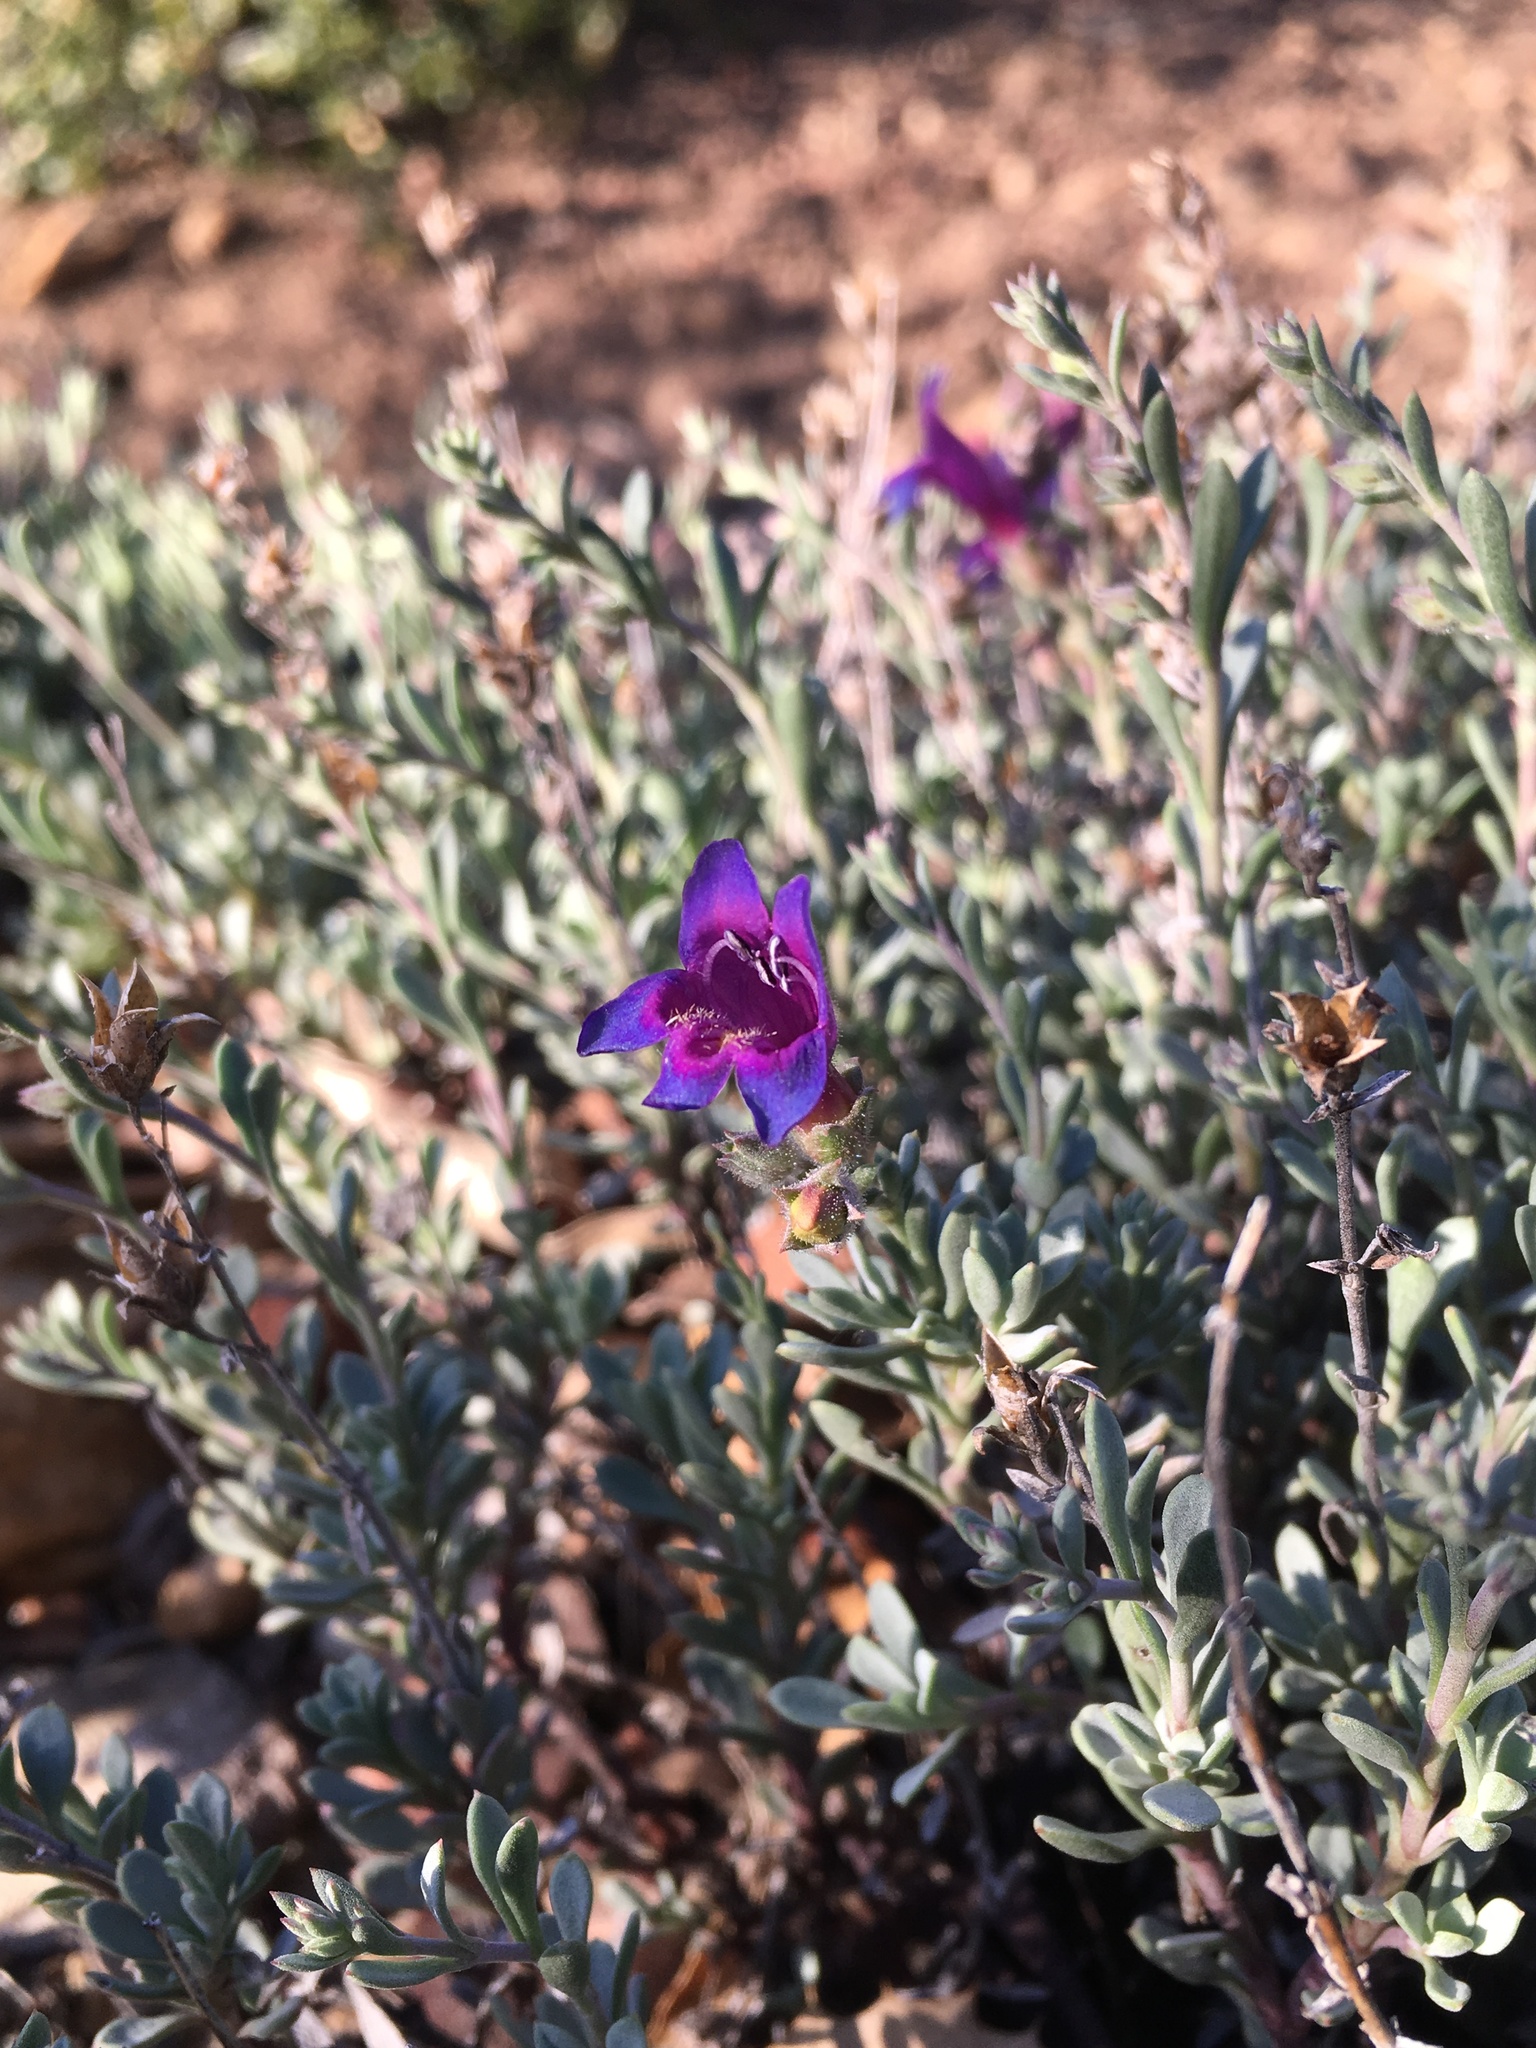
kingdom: Plantae
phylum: Tracheophyta
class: Magnoliopsida
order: Lamiales
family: Plantaginaceae
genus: Penstemon
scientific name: Penstemon californicus
